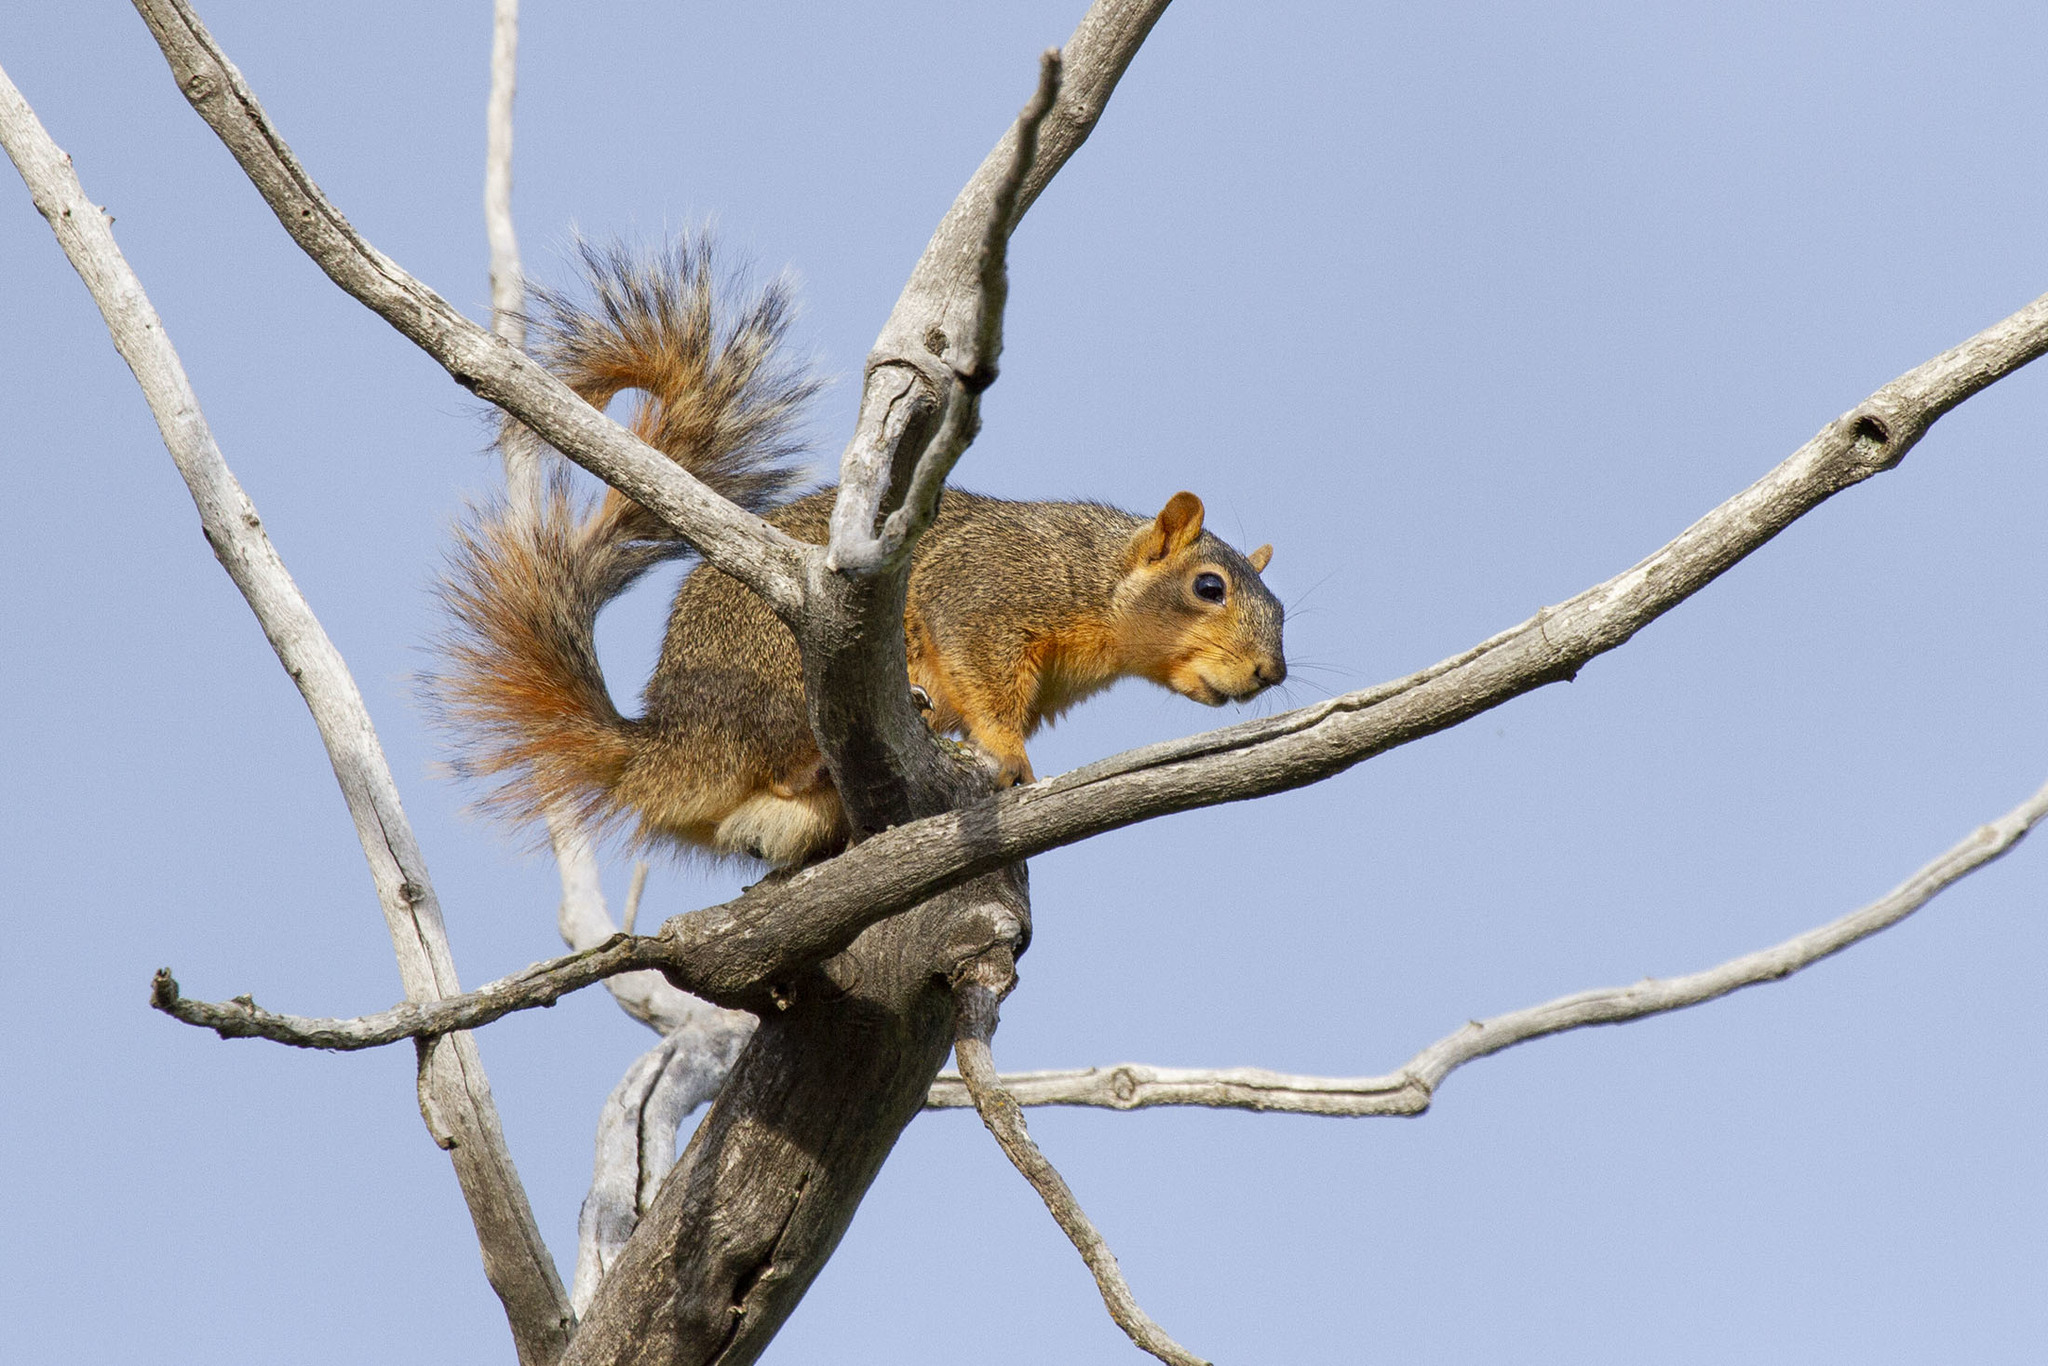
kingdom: Animalia
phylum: Chordata
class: Mammalia
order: Rodentia
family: Sciuridae
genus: Sciurus
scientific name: Sciurus niger
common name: Fox squirrel
